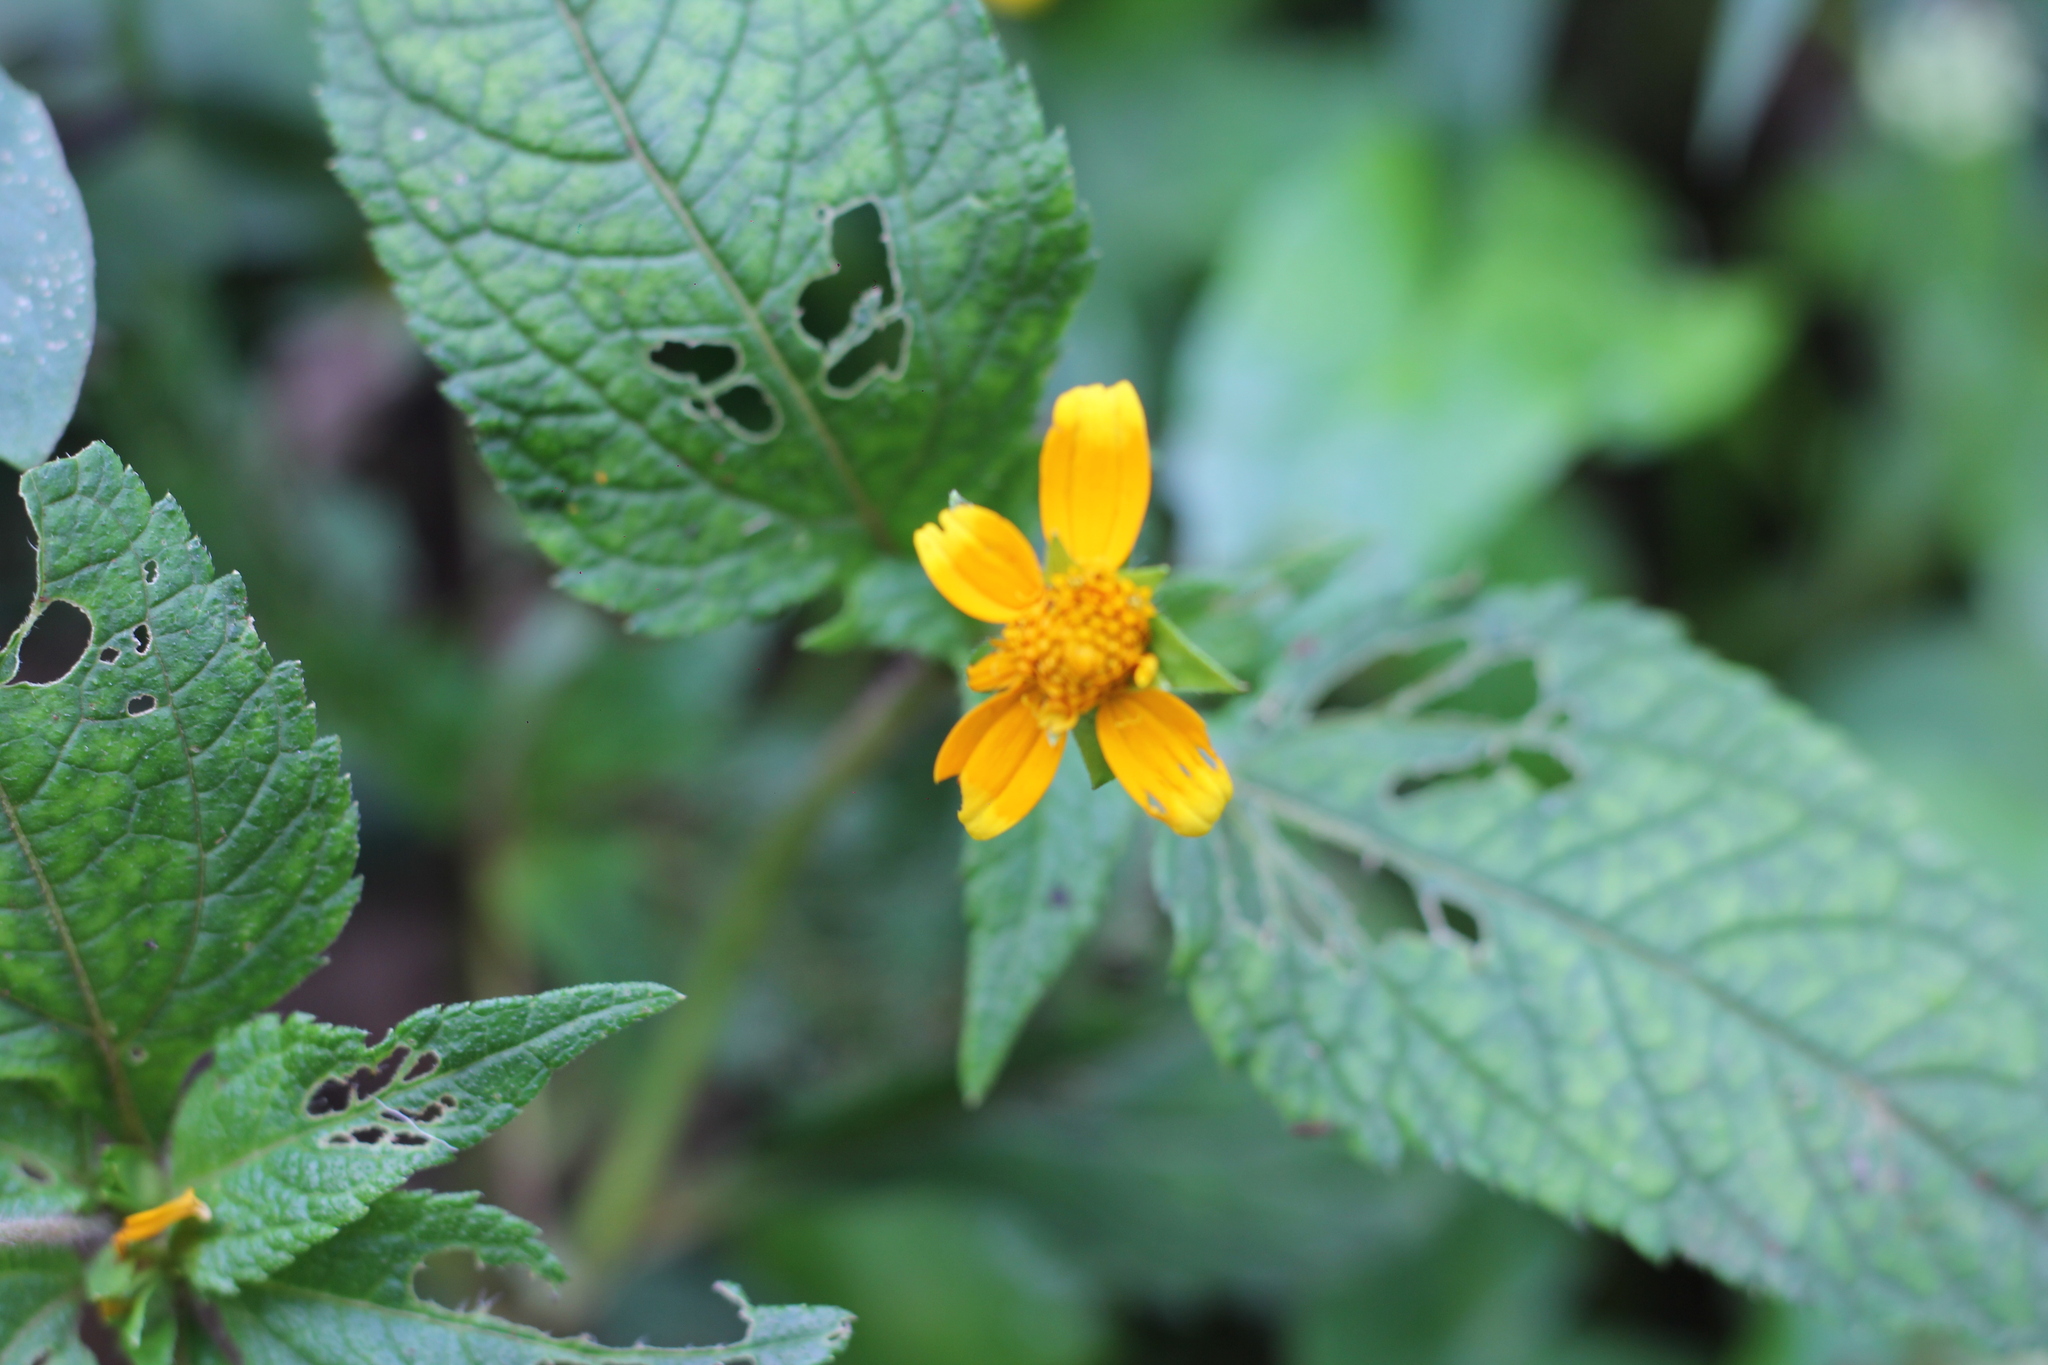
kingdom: Plantae
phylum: Tracheophyta
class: Magnoliopsida
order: Asterales
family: Asteraceae
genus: Wedelia
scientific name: Wedelia kerrii
